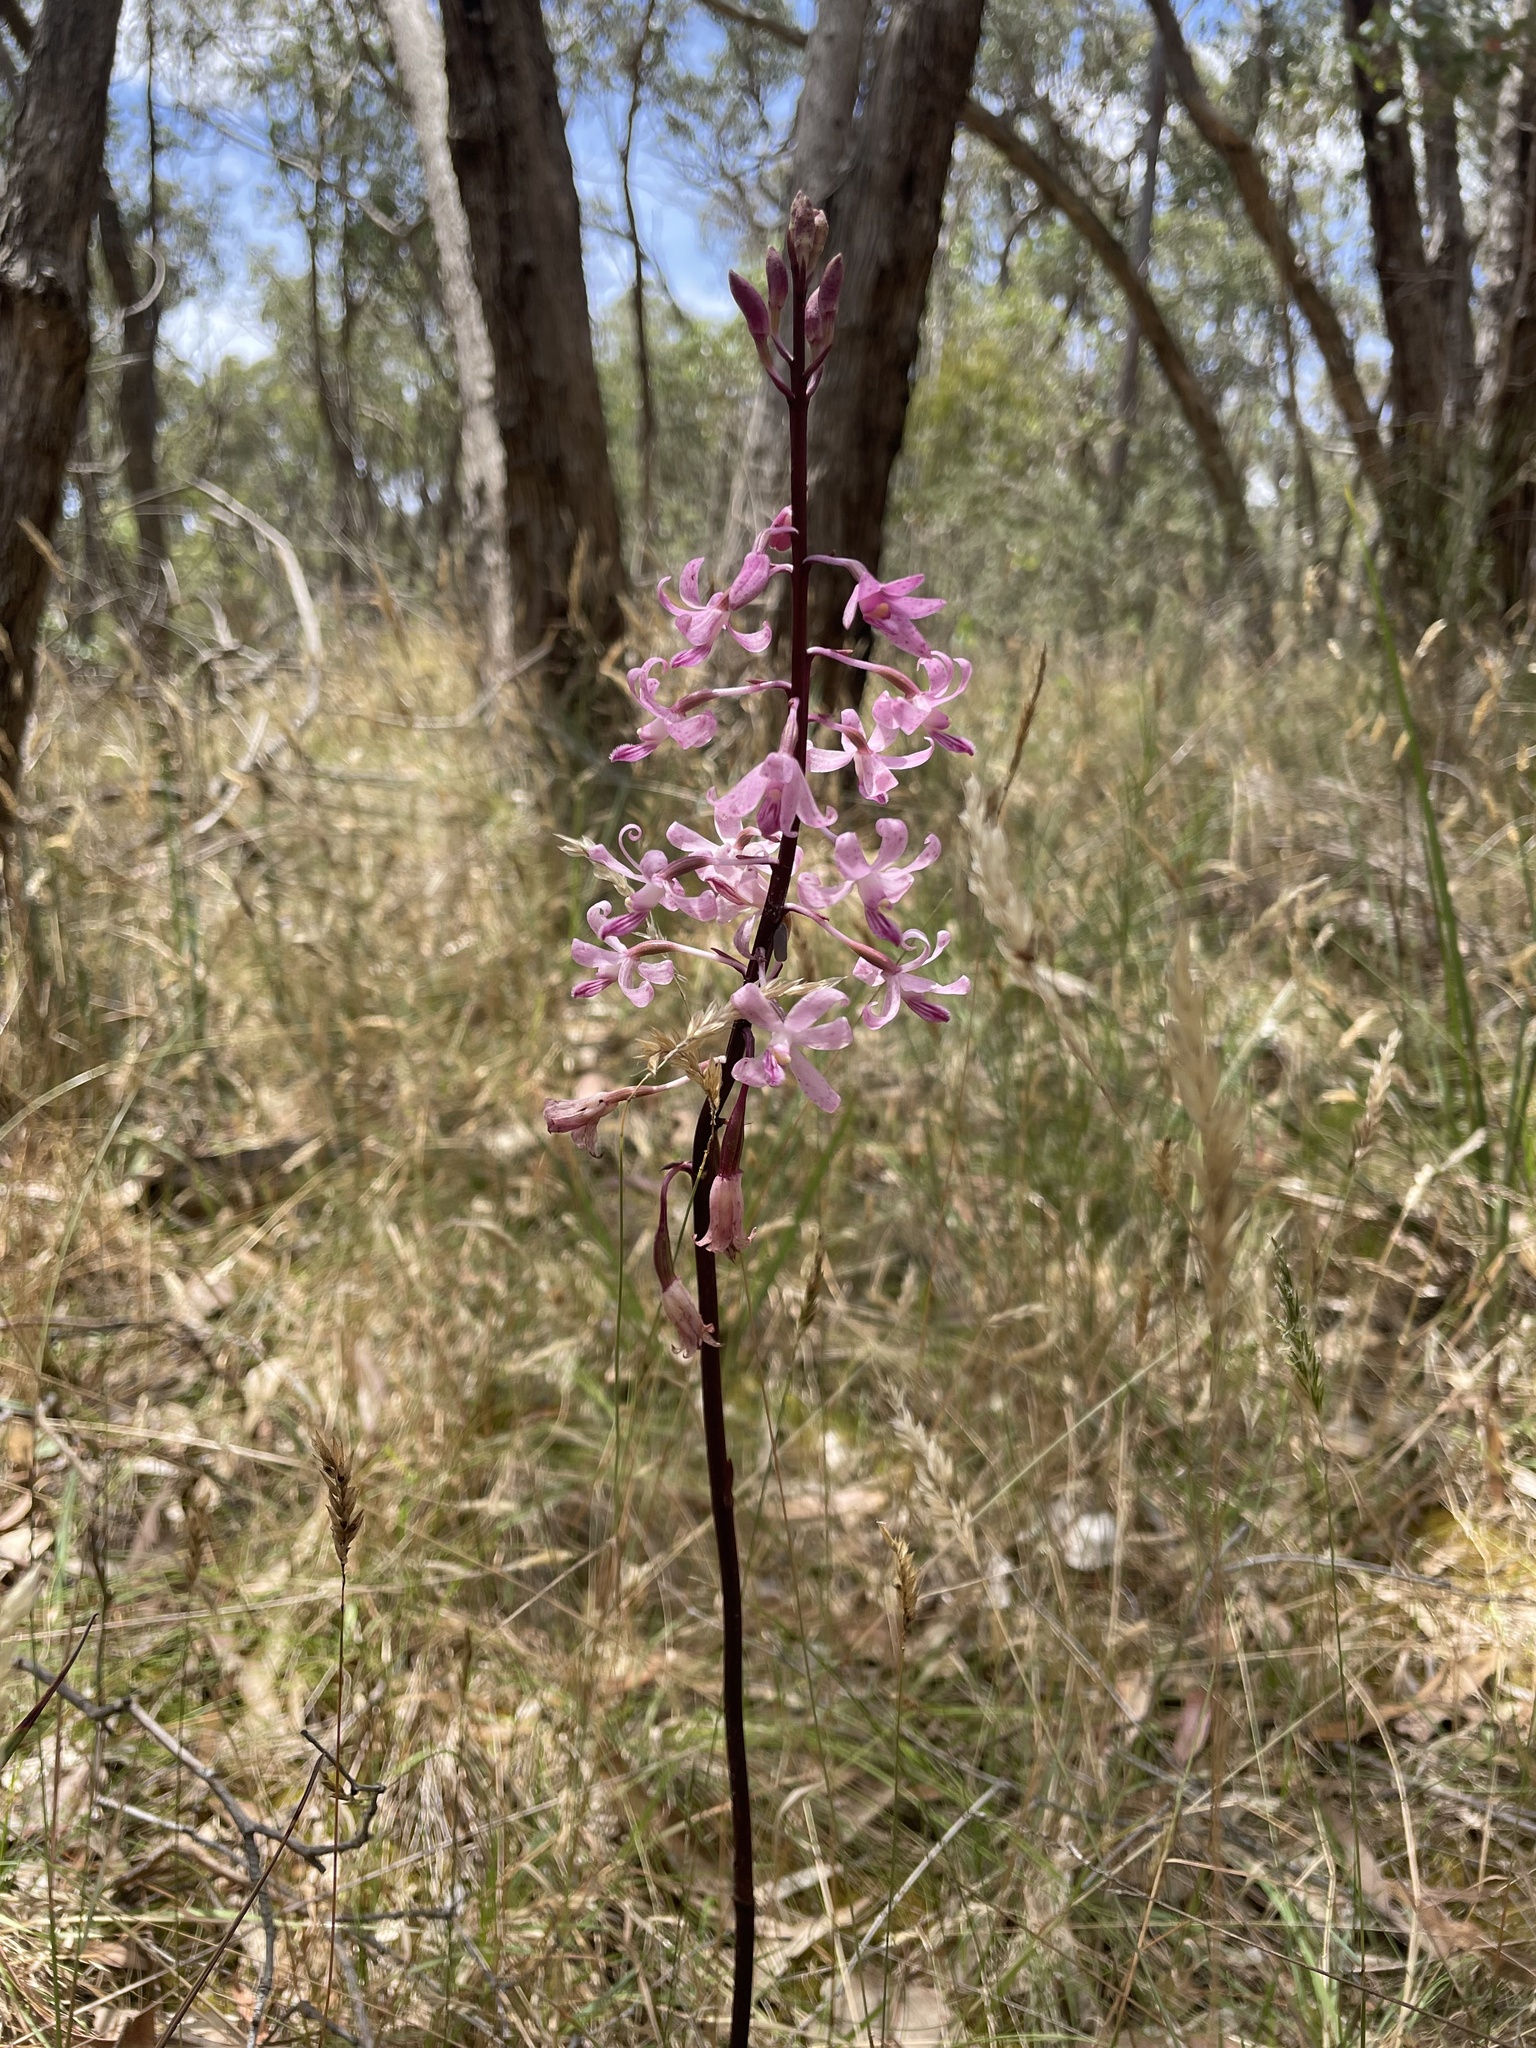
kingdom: Plantae
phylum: Tracheophyta
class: Liliopsida
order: Asparagales
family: Orchidaceae
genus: Dipodium
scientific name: Dipodium roseum
